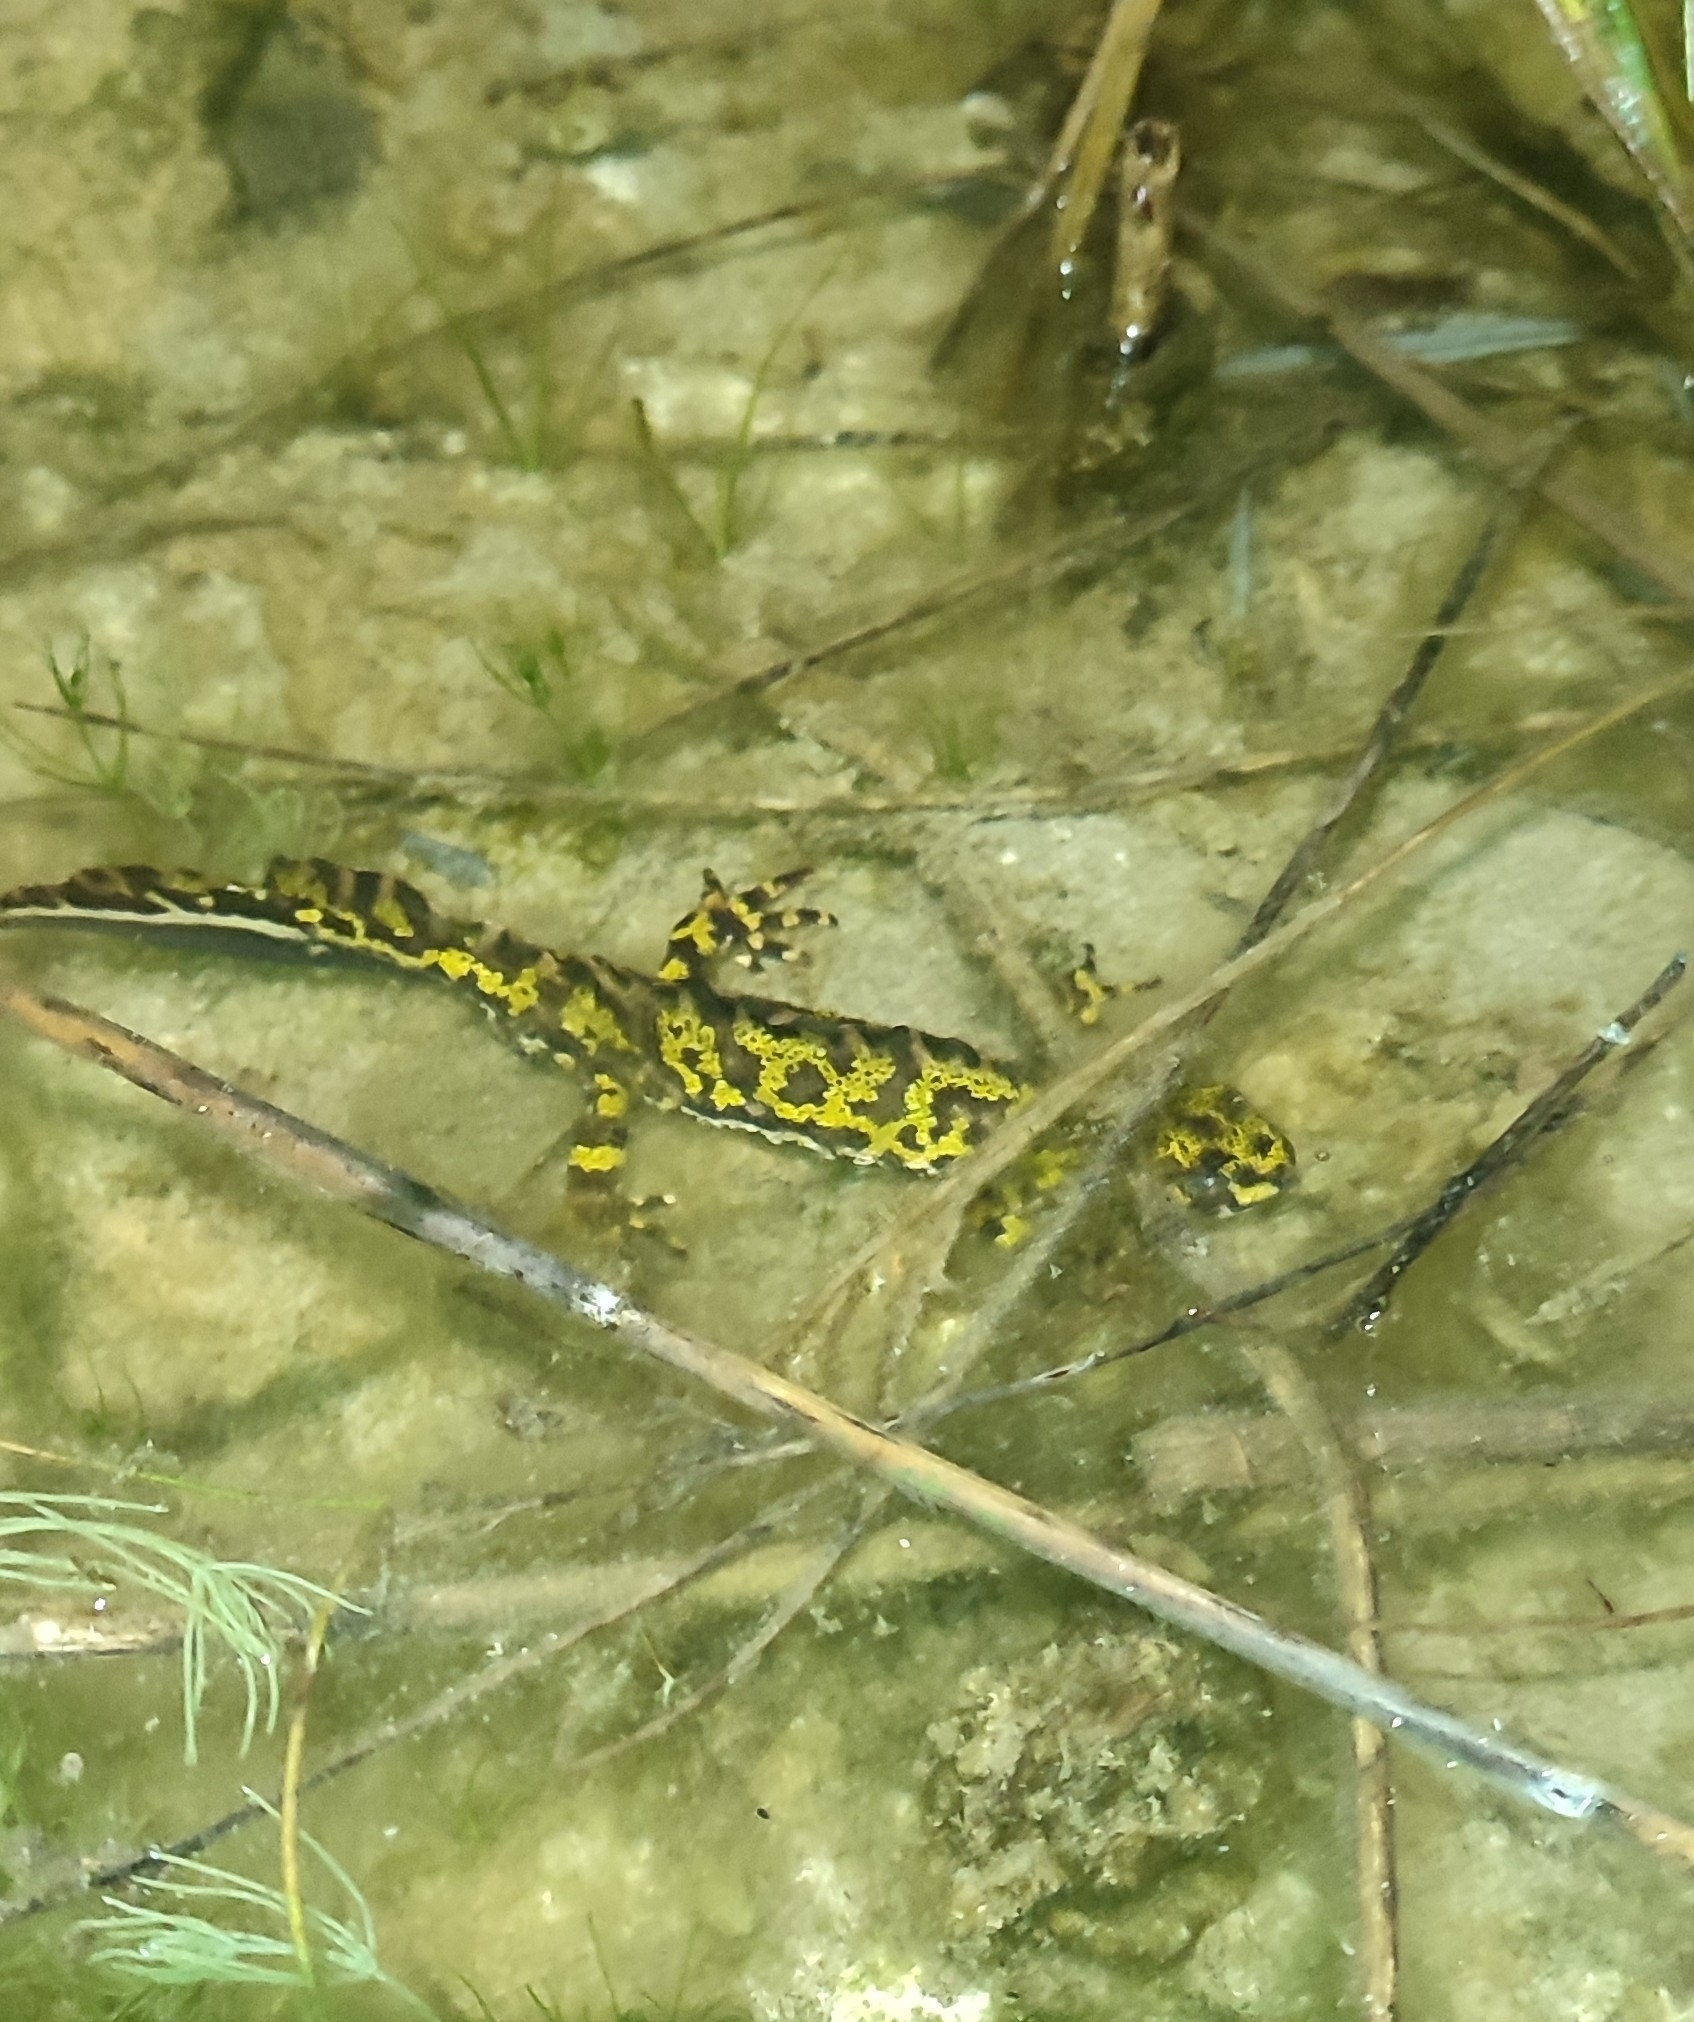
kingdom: Animalia
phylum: Chordata
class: Amphibia
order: Caudata
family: Salamandridae
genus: Triturus
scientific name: Triturus marmoratus
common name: Marbled newt
